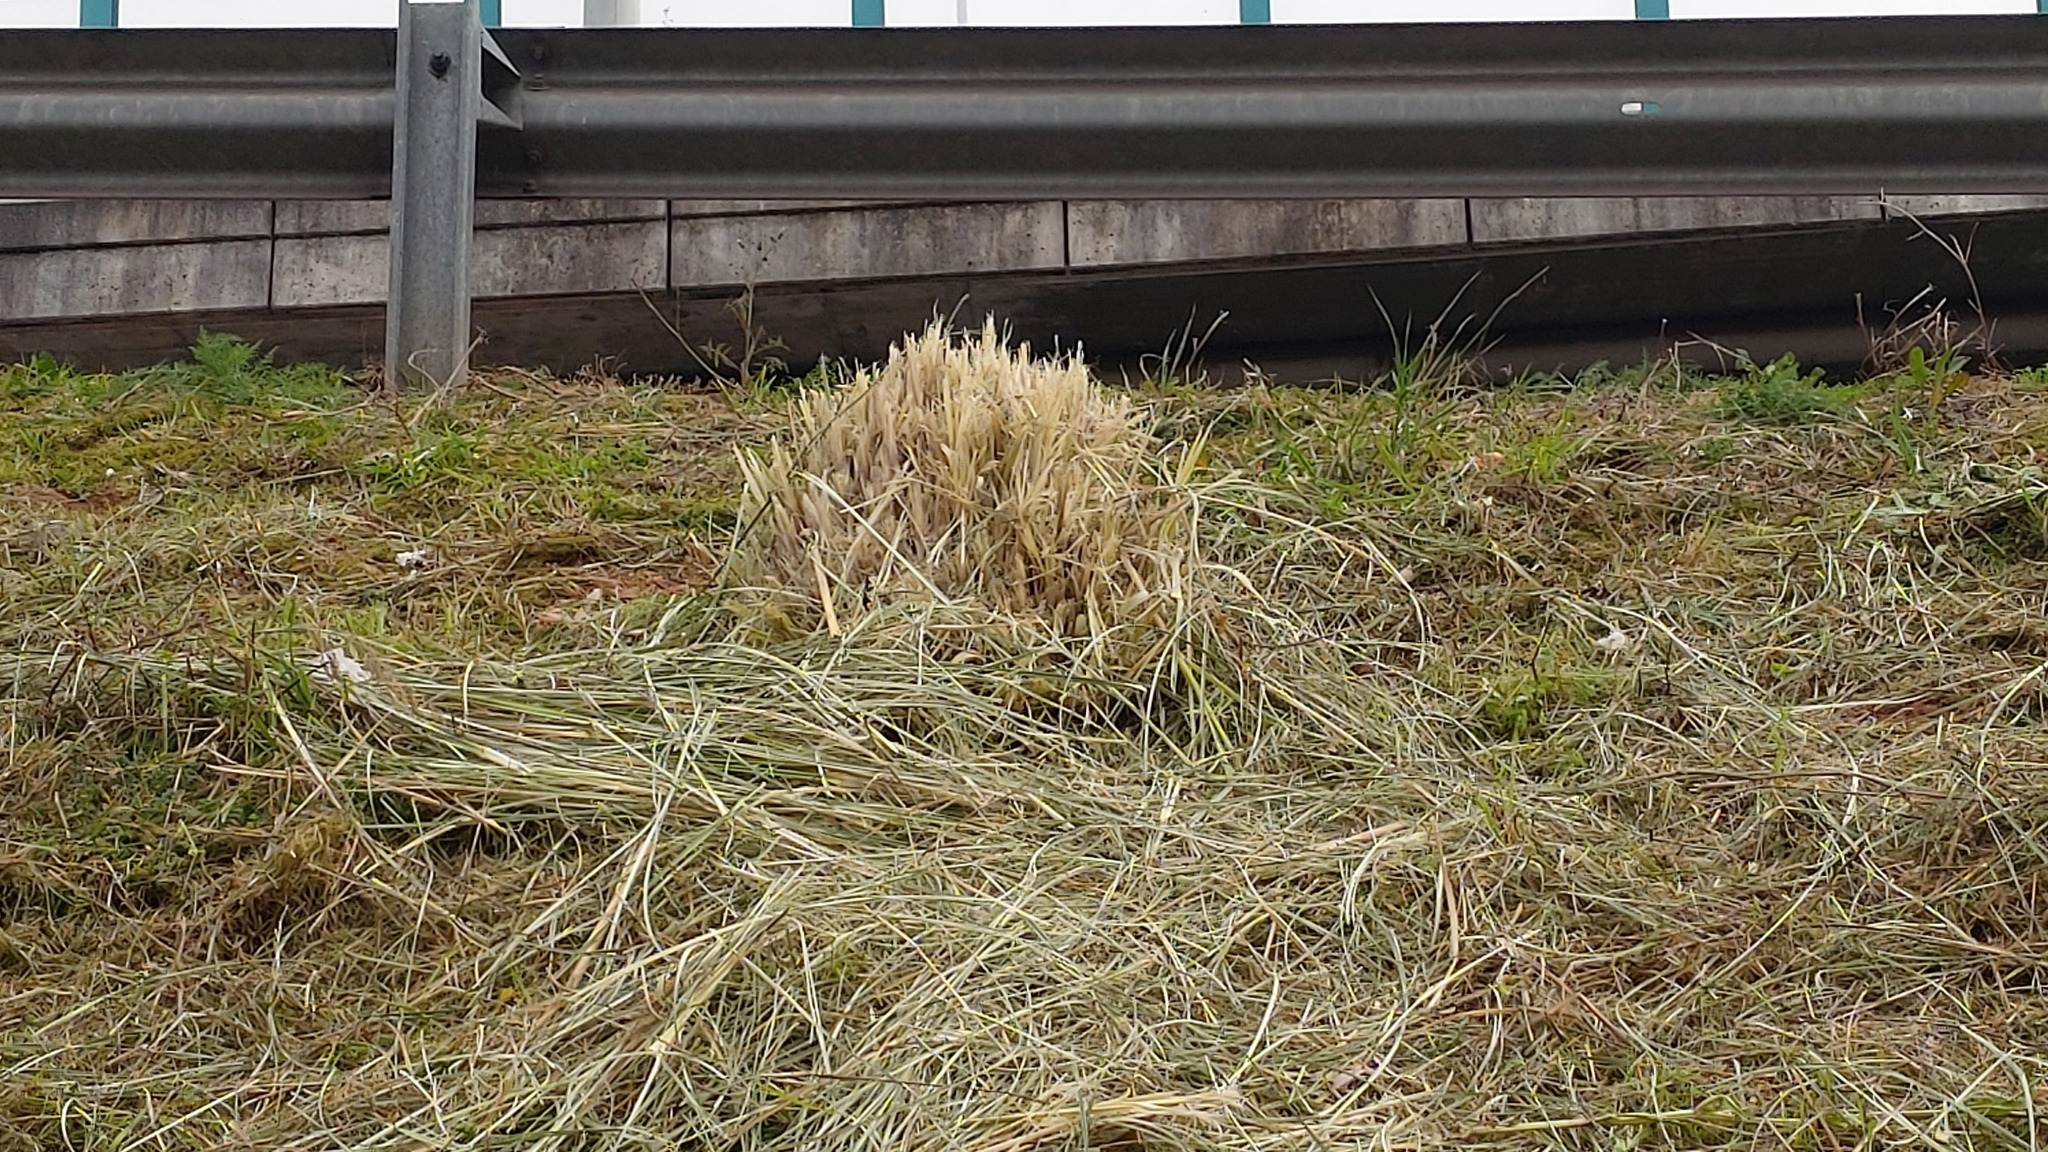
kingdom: Plantae
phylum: Tracheophyta
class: Liliopsida
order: Poales
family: Poaceae
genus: Cortaderia
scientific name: Cortaderia selloana
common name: Uruguayan pampas grass
